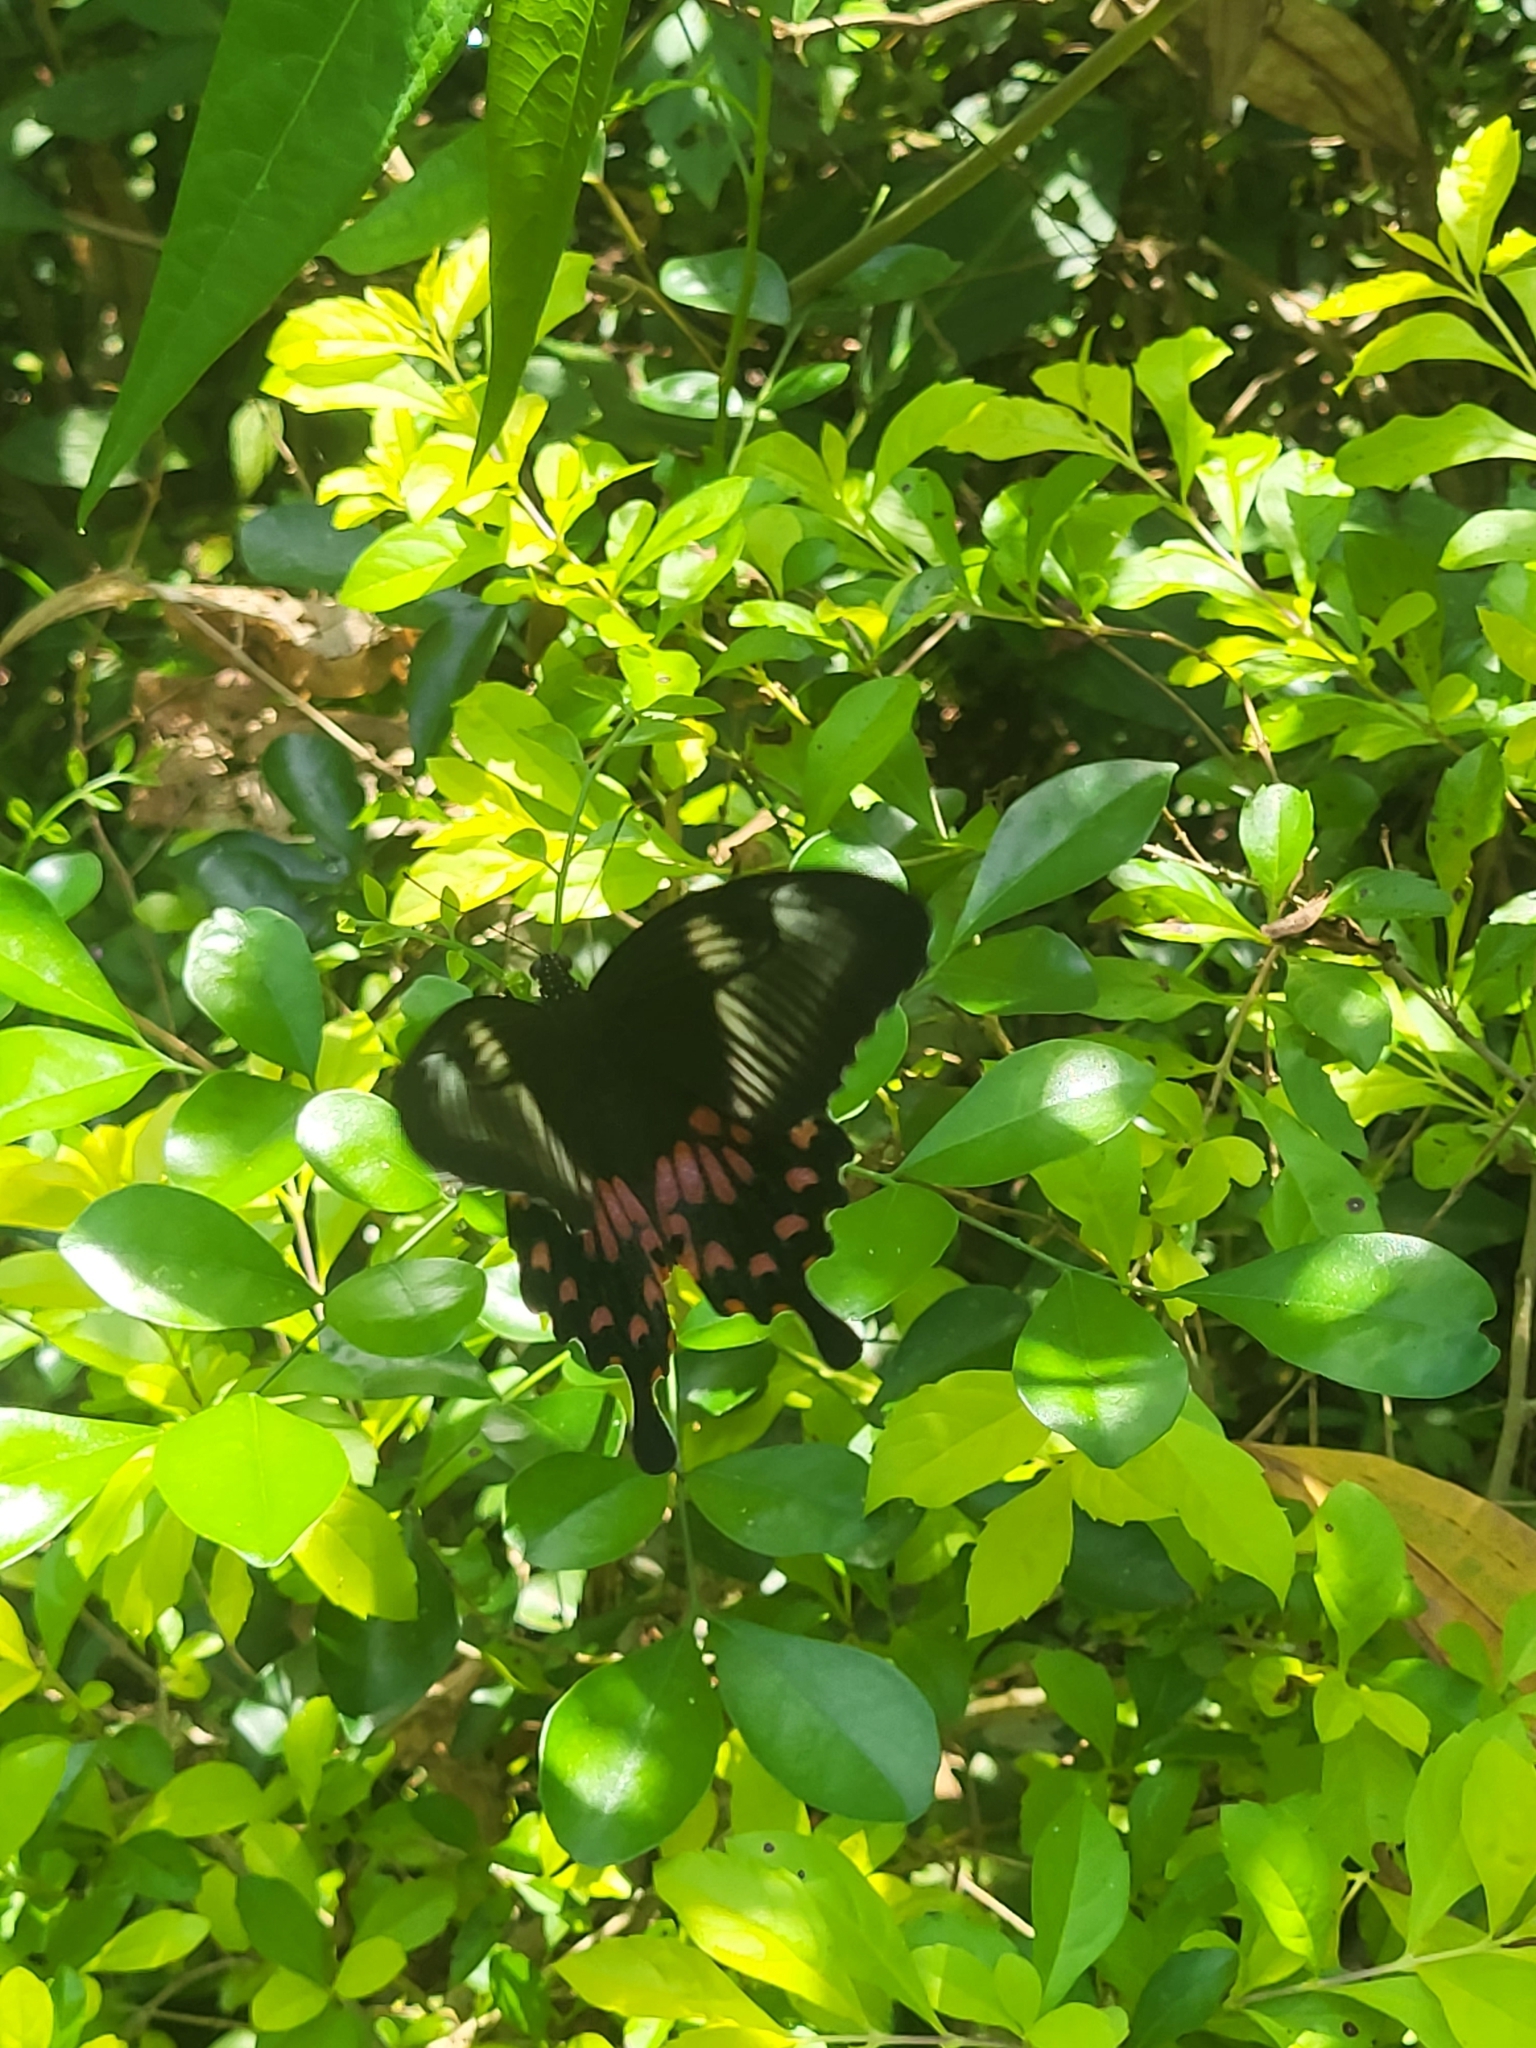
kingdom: Animalia
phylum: Arthropoda
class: Insecta
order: Lepidoptera
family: Papilionidae
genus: Papilio
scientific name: Papilio polytes
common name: Common mormon
